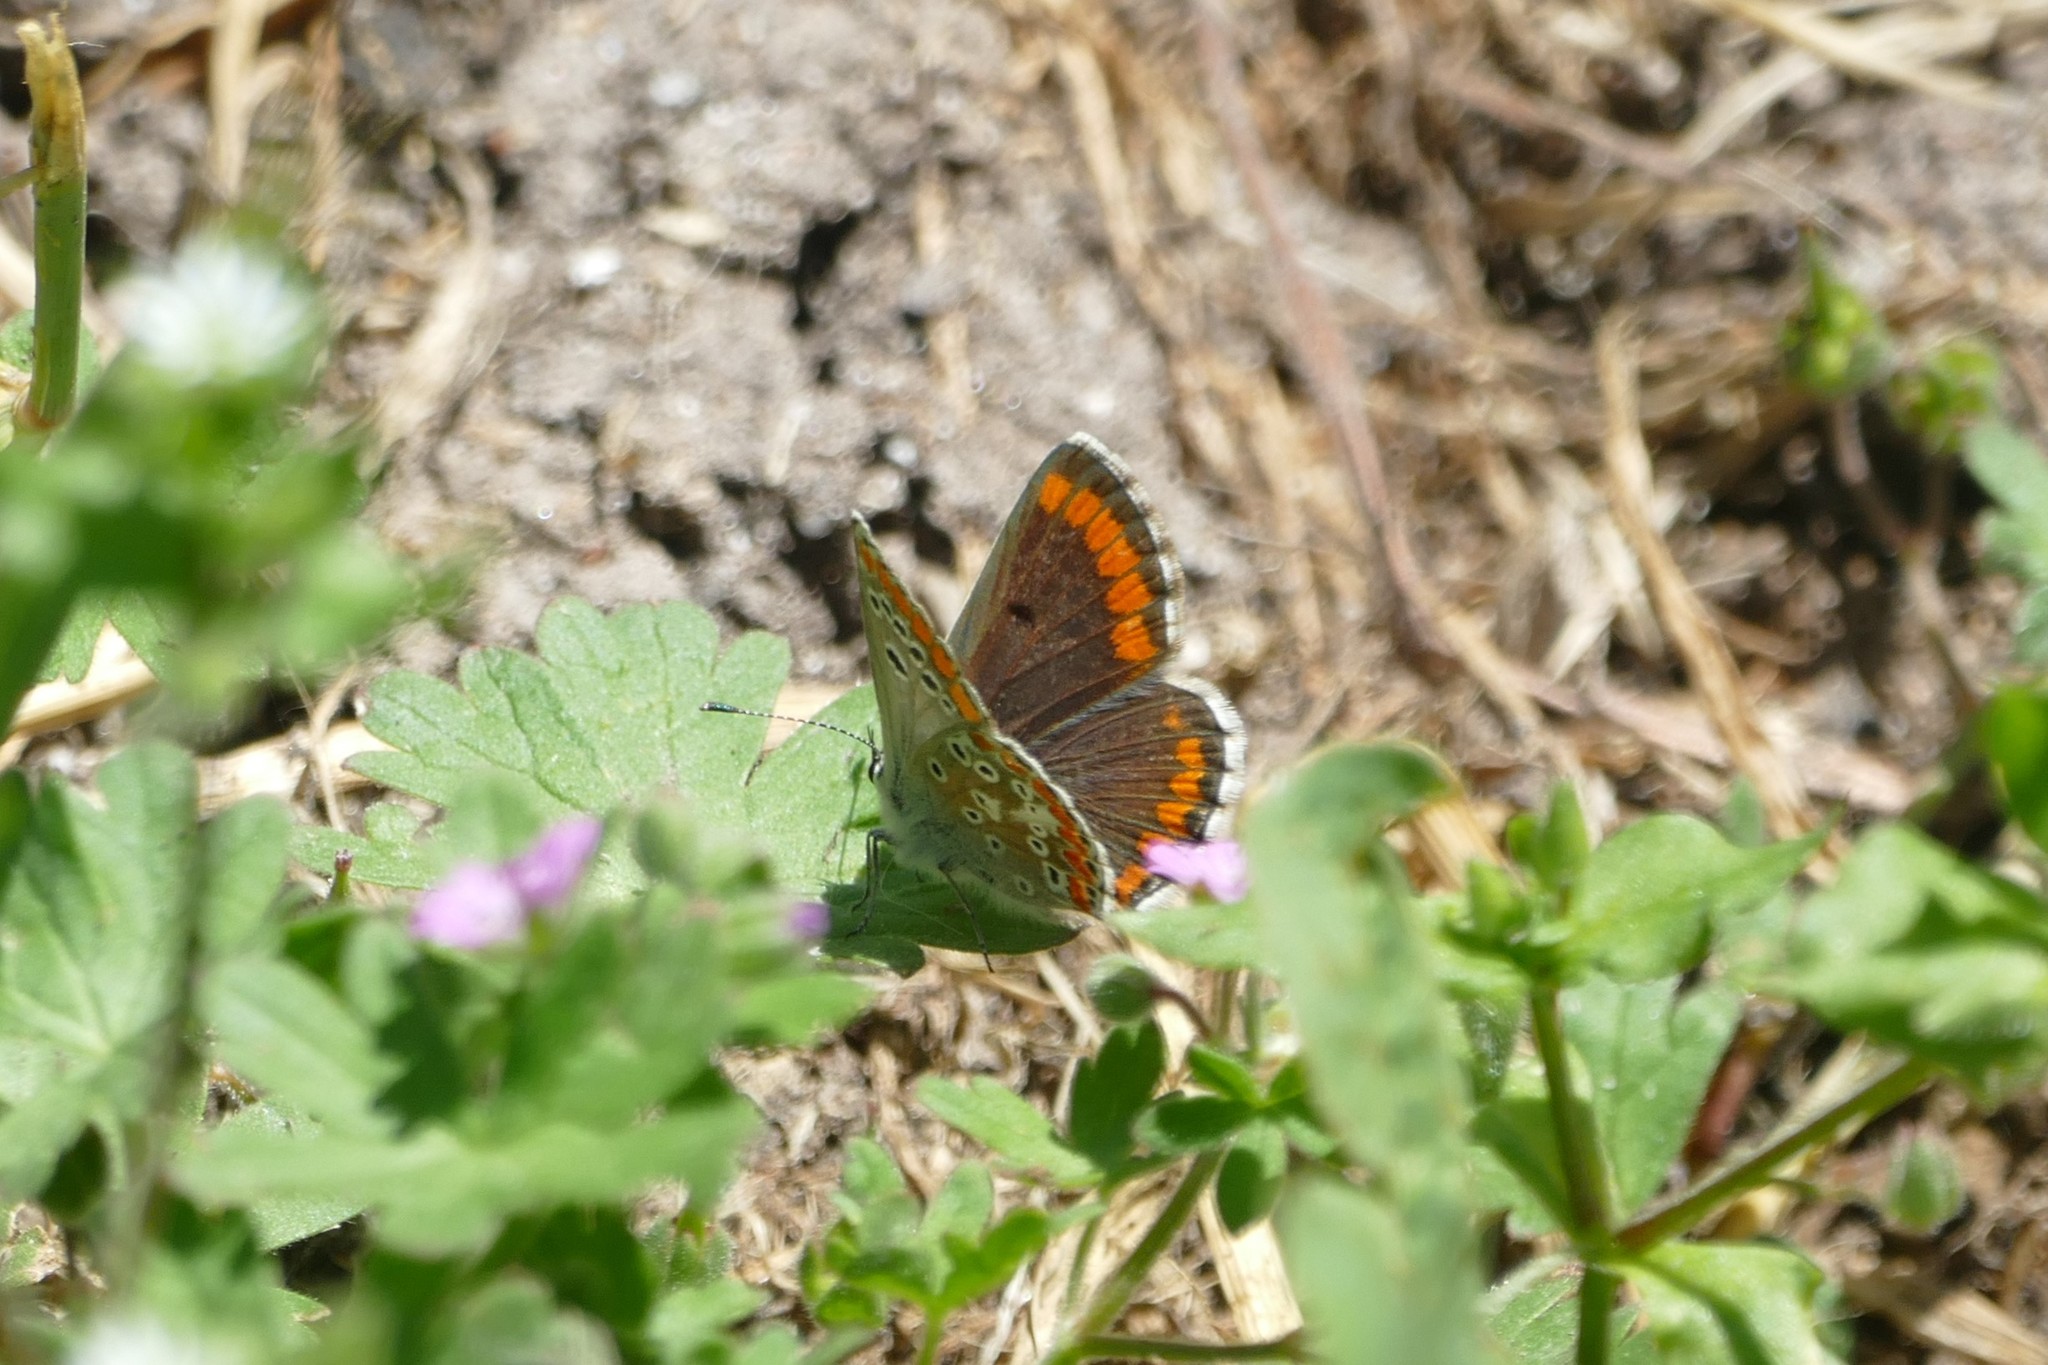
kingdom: Animalia
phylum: Arthropoda
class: Insecta
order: Lepidoptera
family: Lycaenidae
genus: Aricia
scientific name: Aricia cramera
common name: Eschscholtz´s brown  argus
